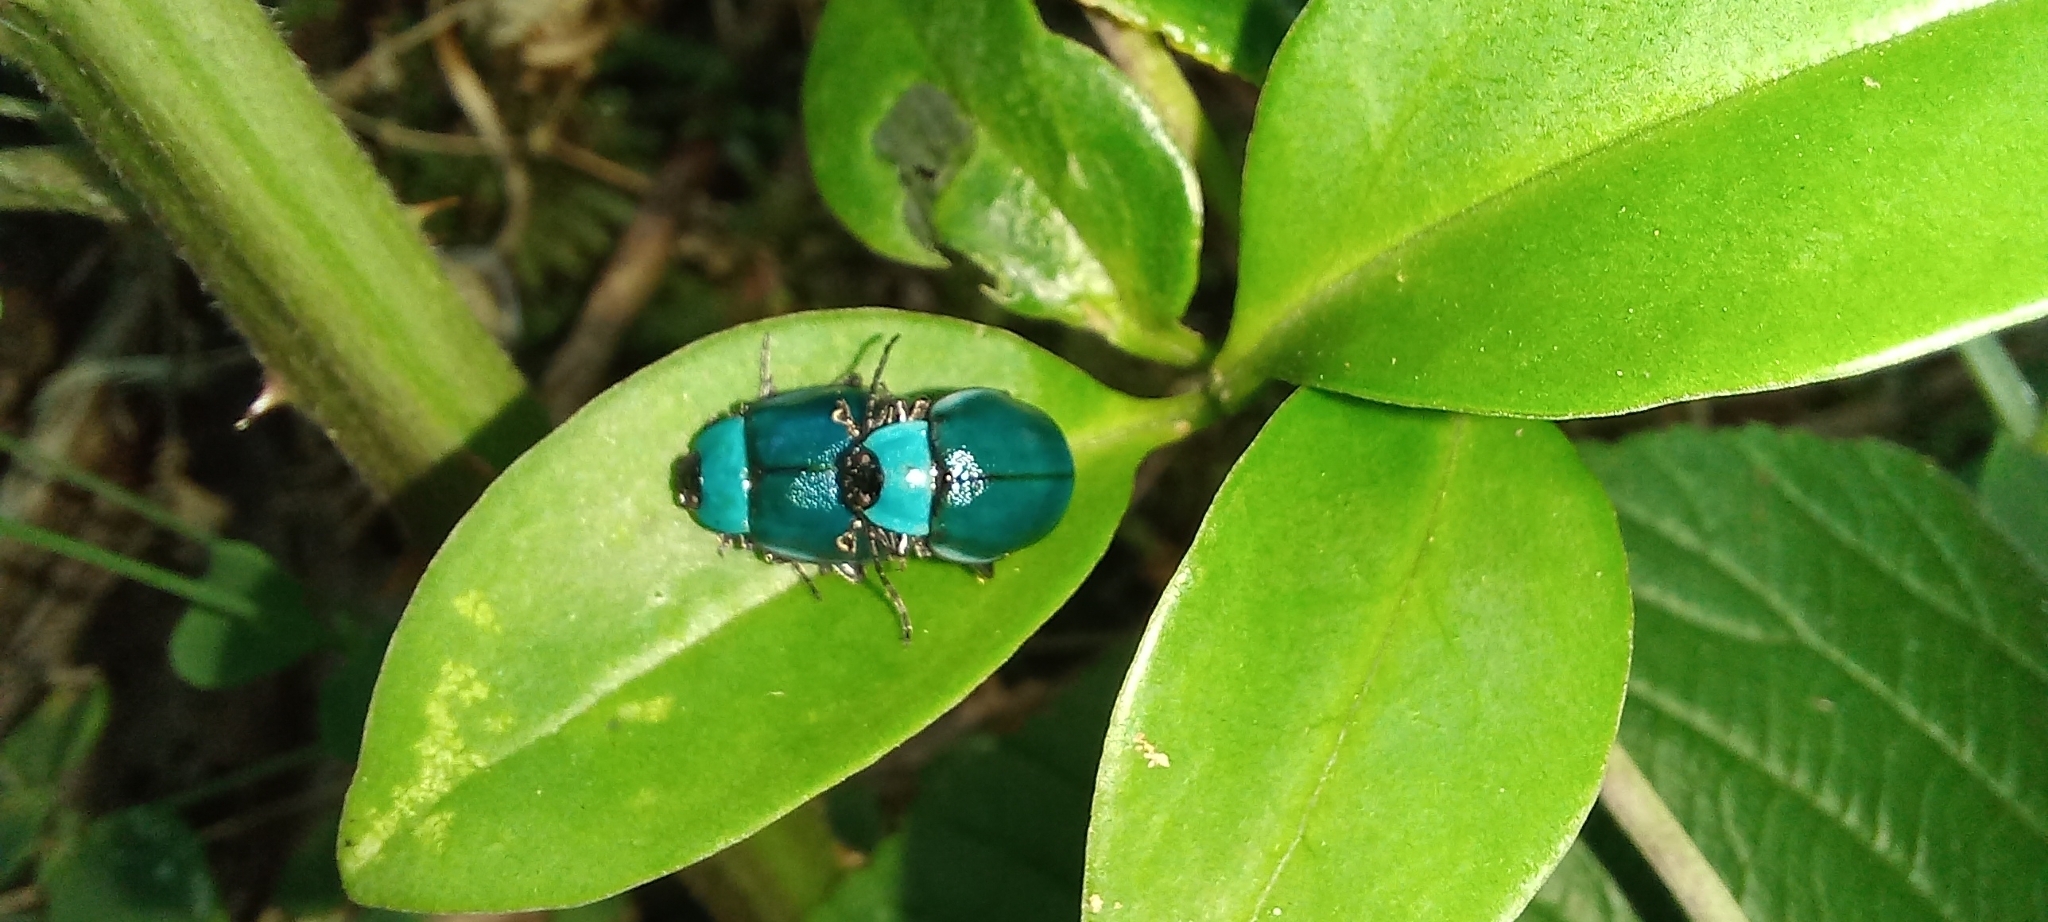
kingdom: Animalia
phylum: Arthropoda
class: Insecta
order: Coleoptera
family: Chrysomelidae
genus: Aspicela
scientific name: Aspicela
